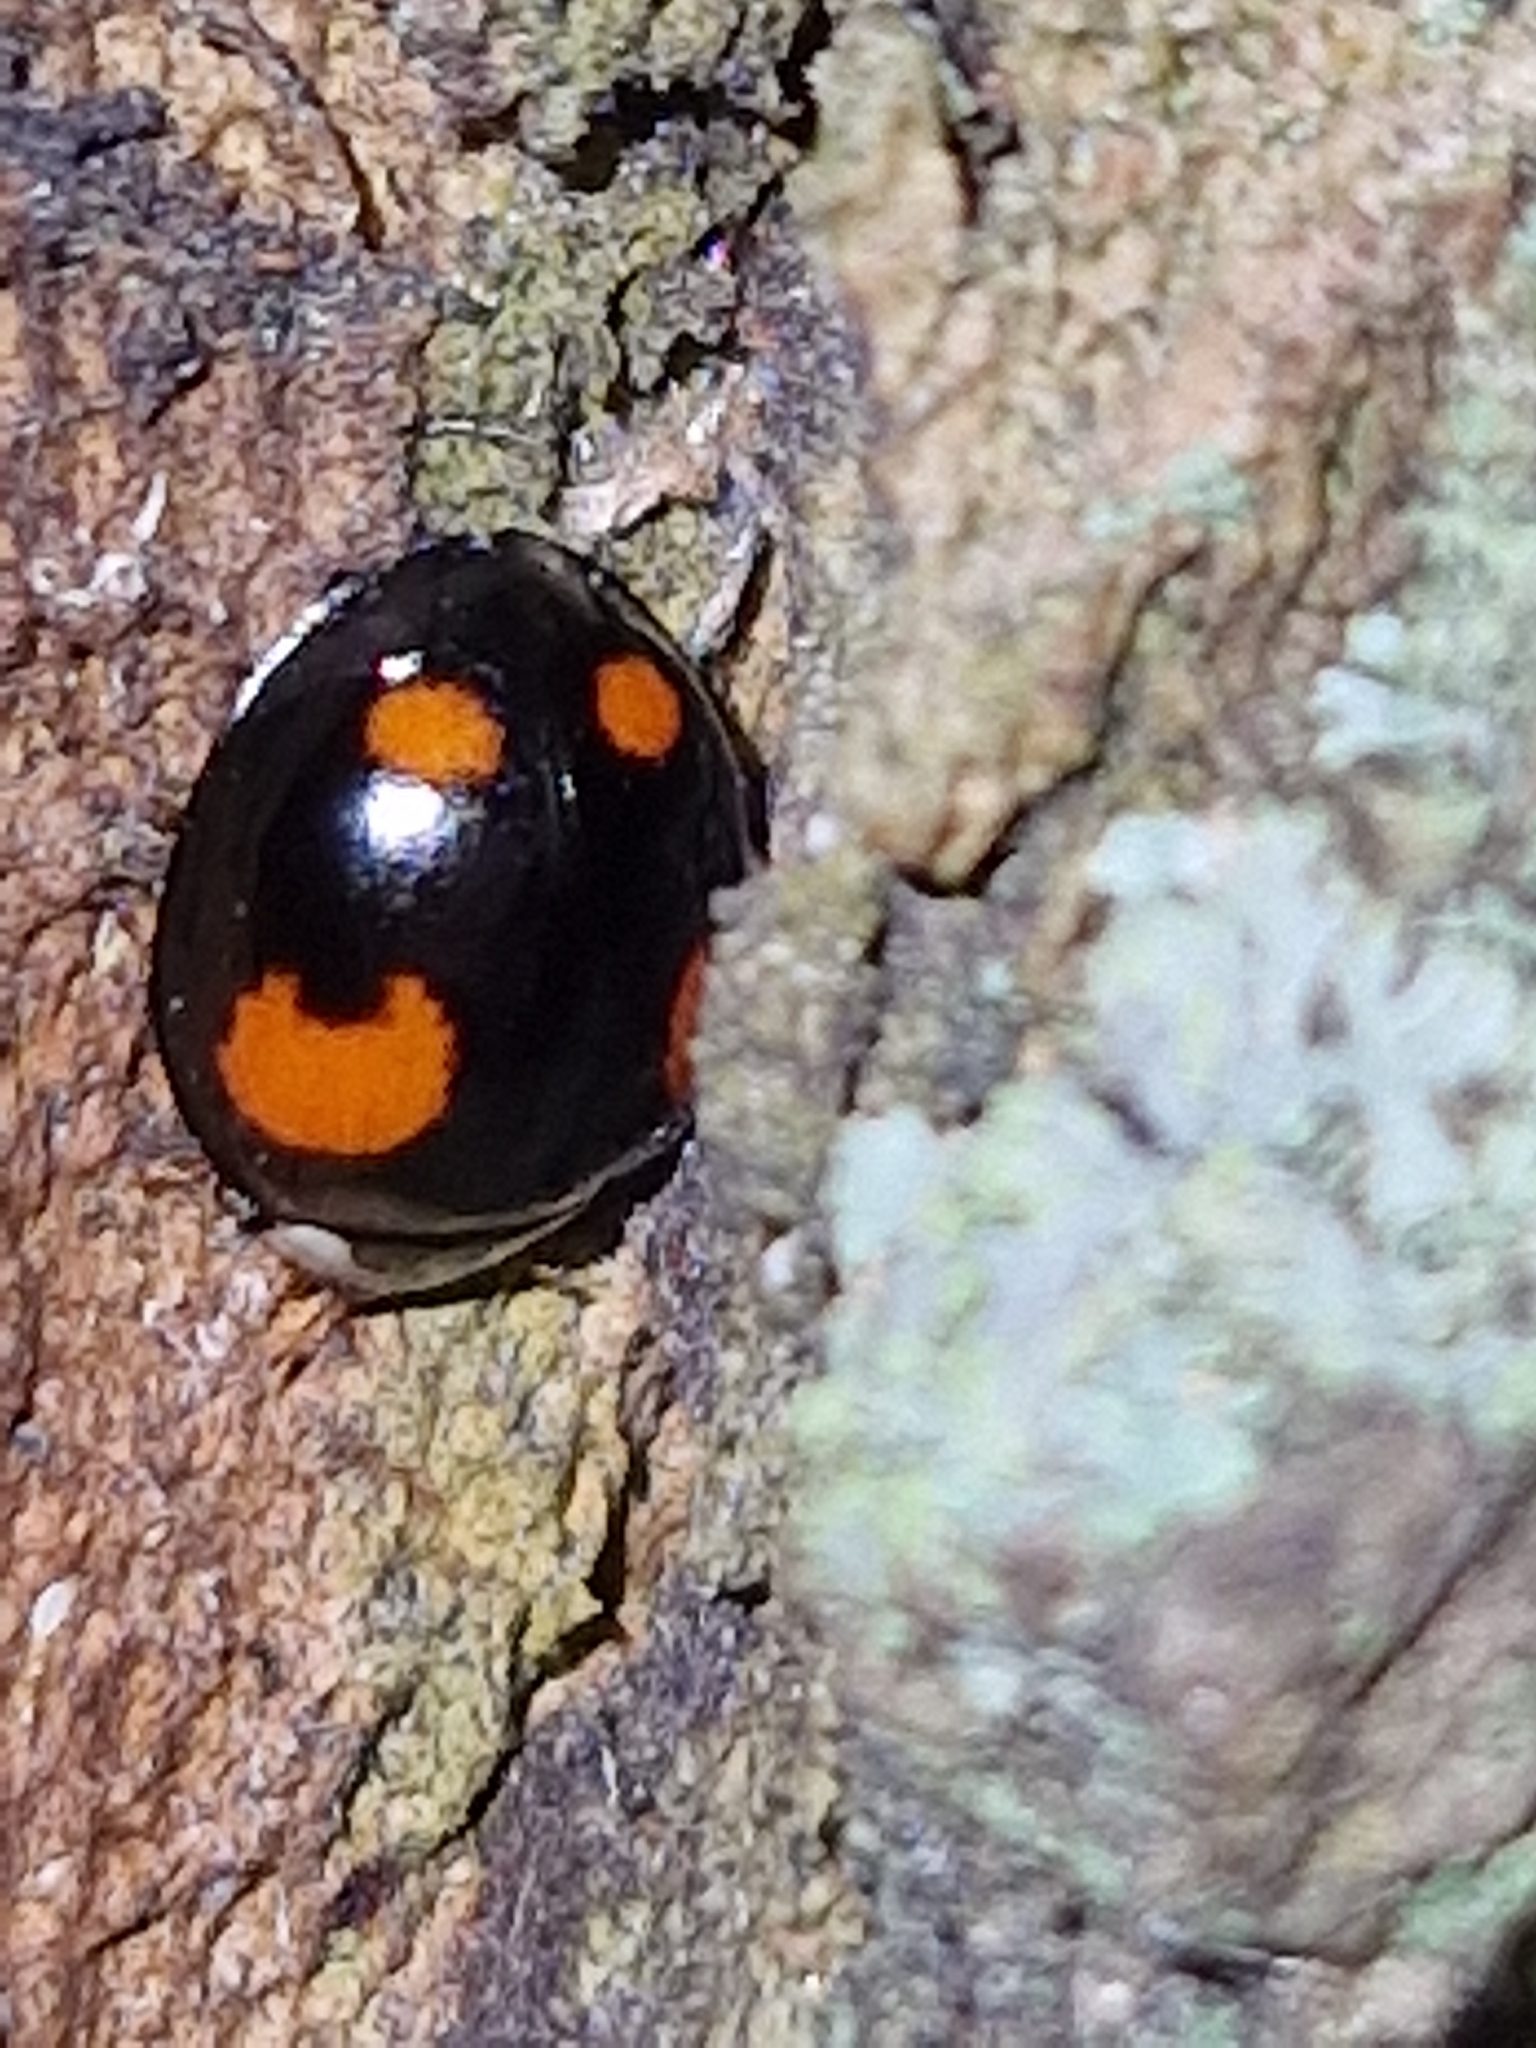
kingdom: Animalia
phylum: Arthropoda
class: Insecta
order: Coleoptera
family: Coccinellidae
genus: Harmonia
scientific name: Harmonia axyridis
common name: Harlequin ladybird
